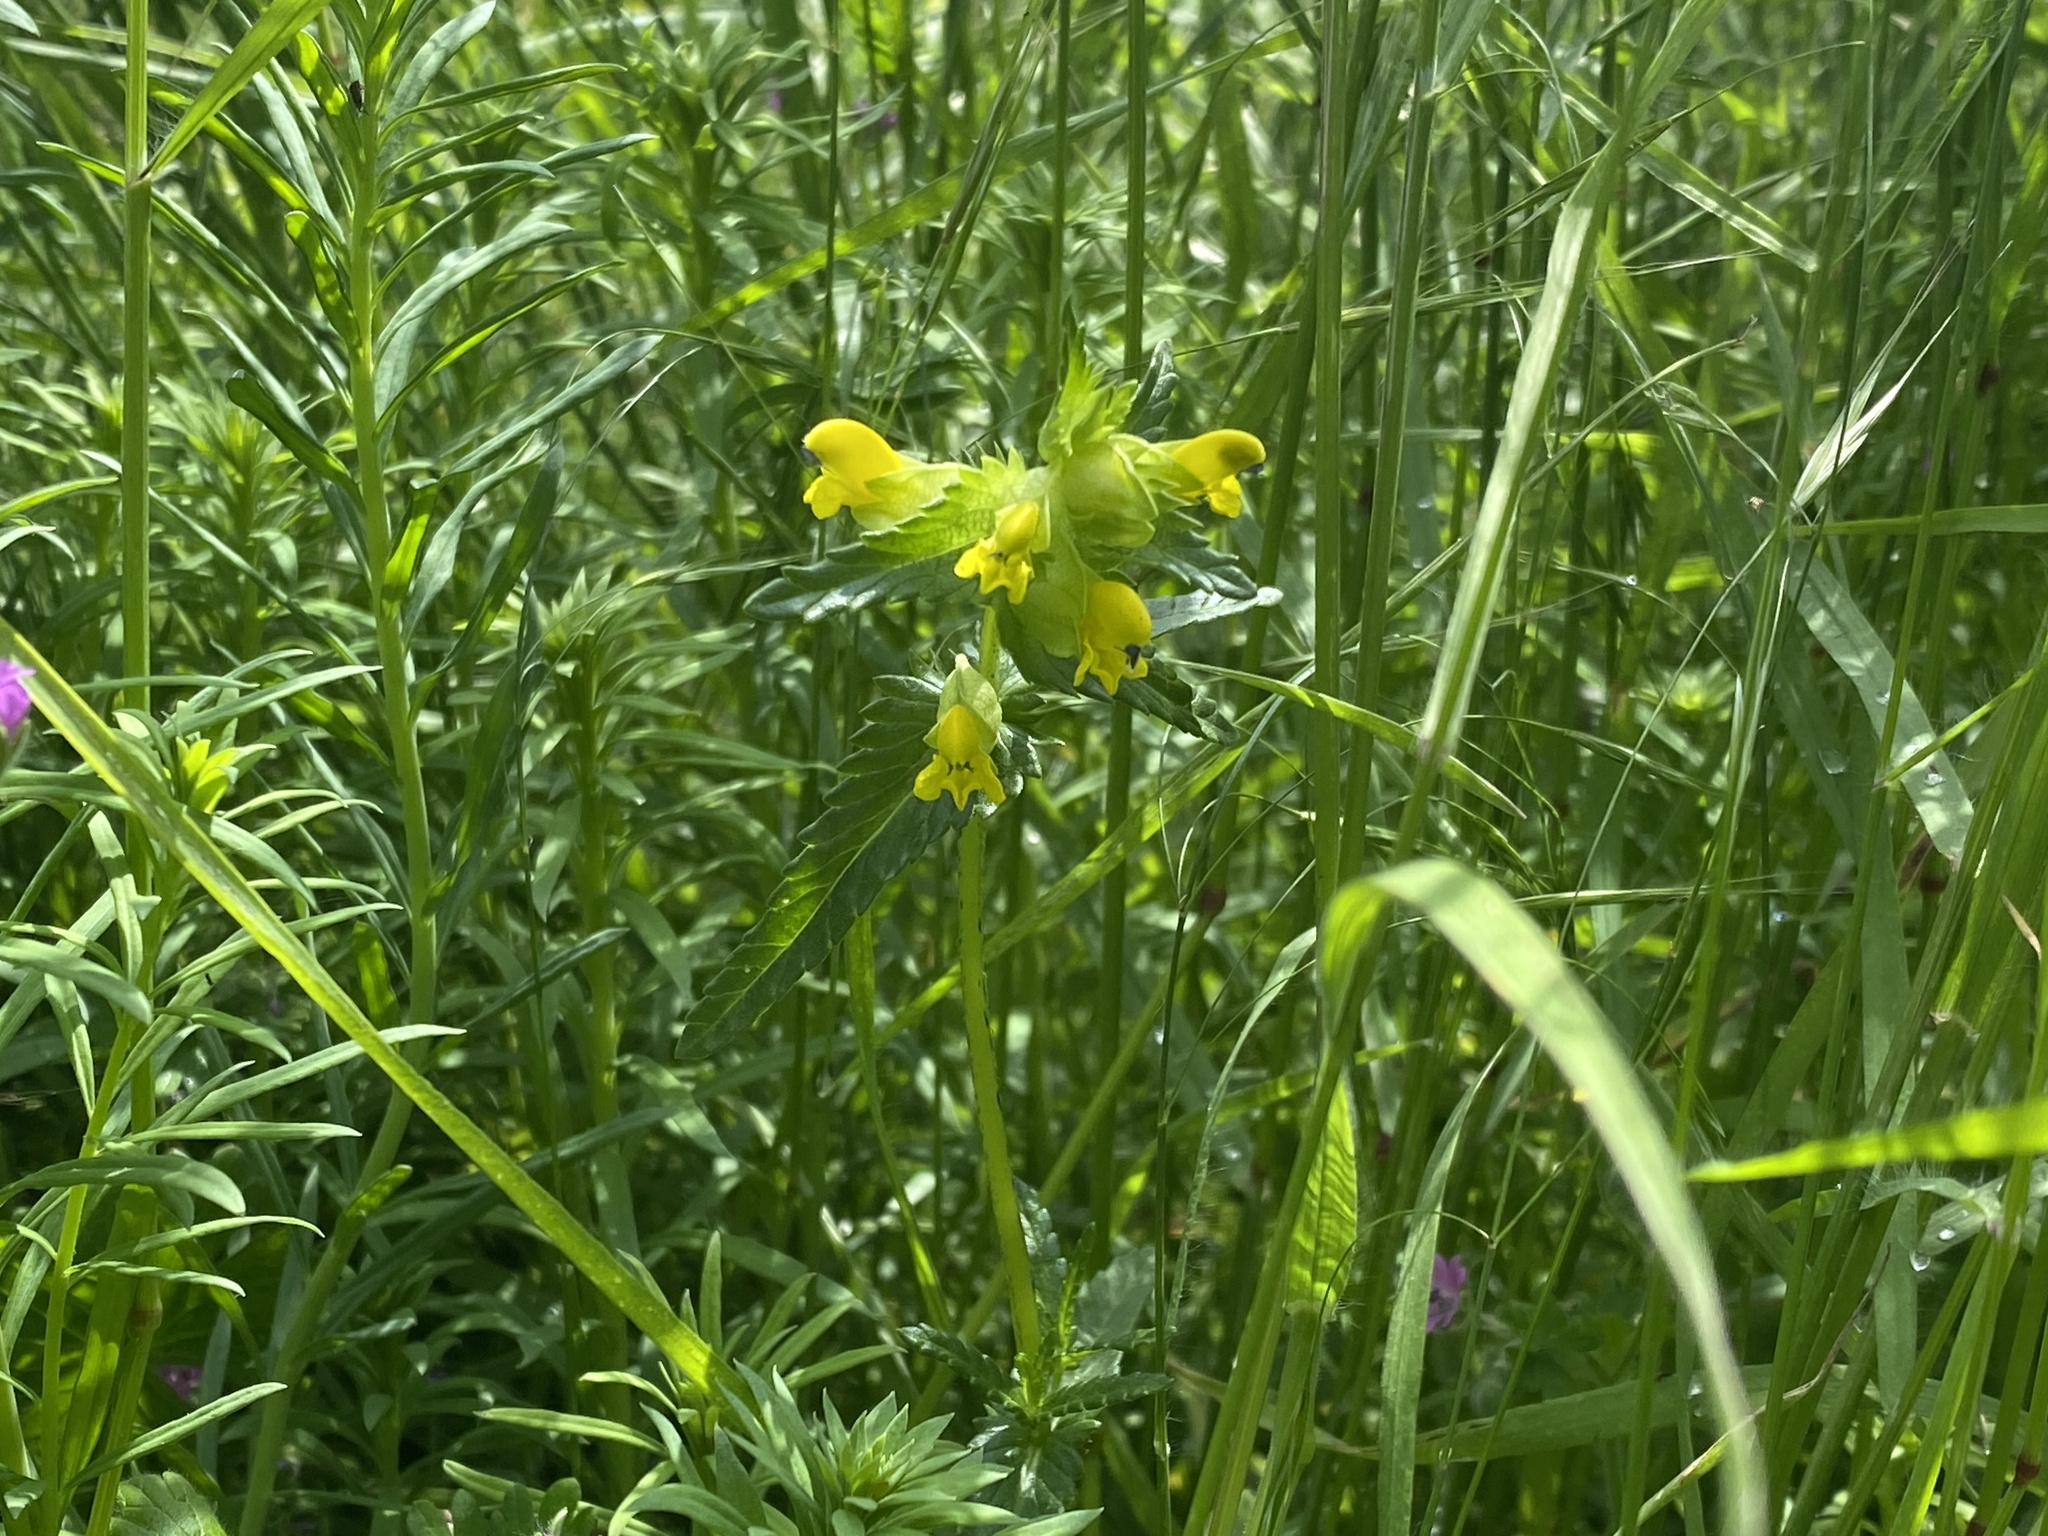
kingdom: Plantae
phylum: Tracheophyta
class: Magnoliopsida
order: Lamiales
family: Orobanchaceae
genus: Rhinanthus
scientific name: Rhinanthus minor
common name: Yellow-rattle
